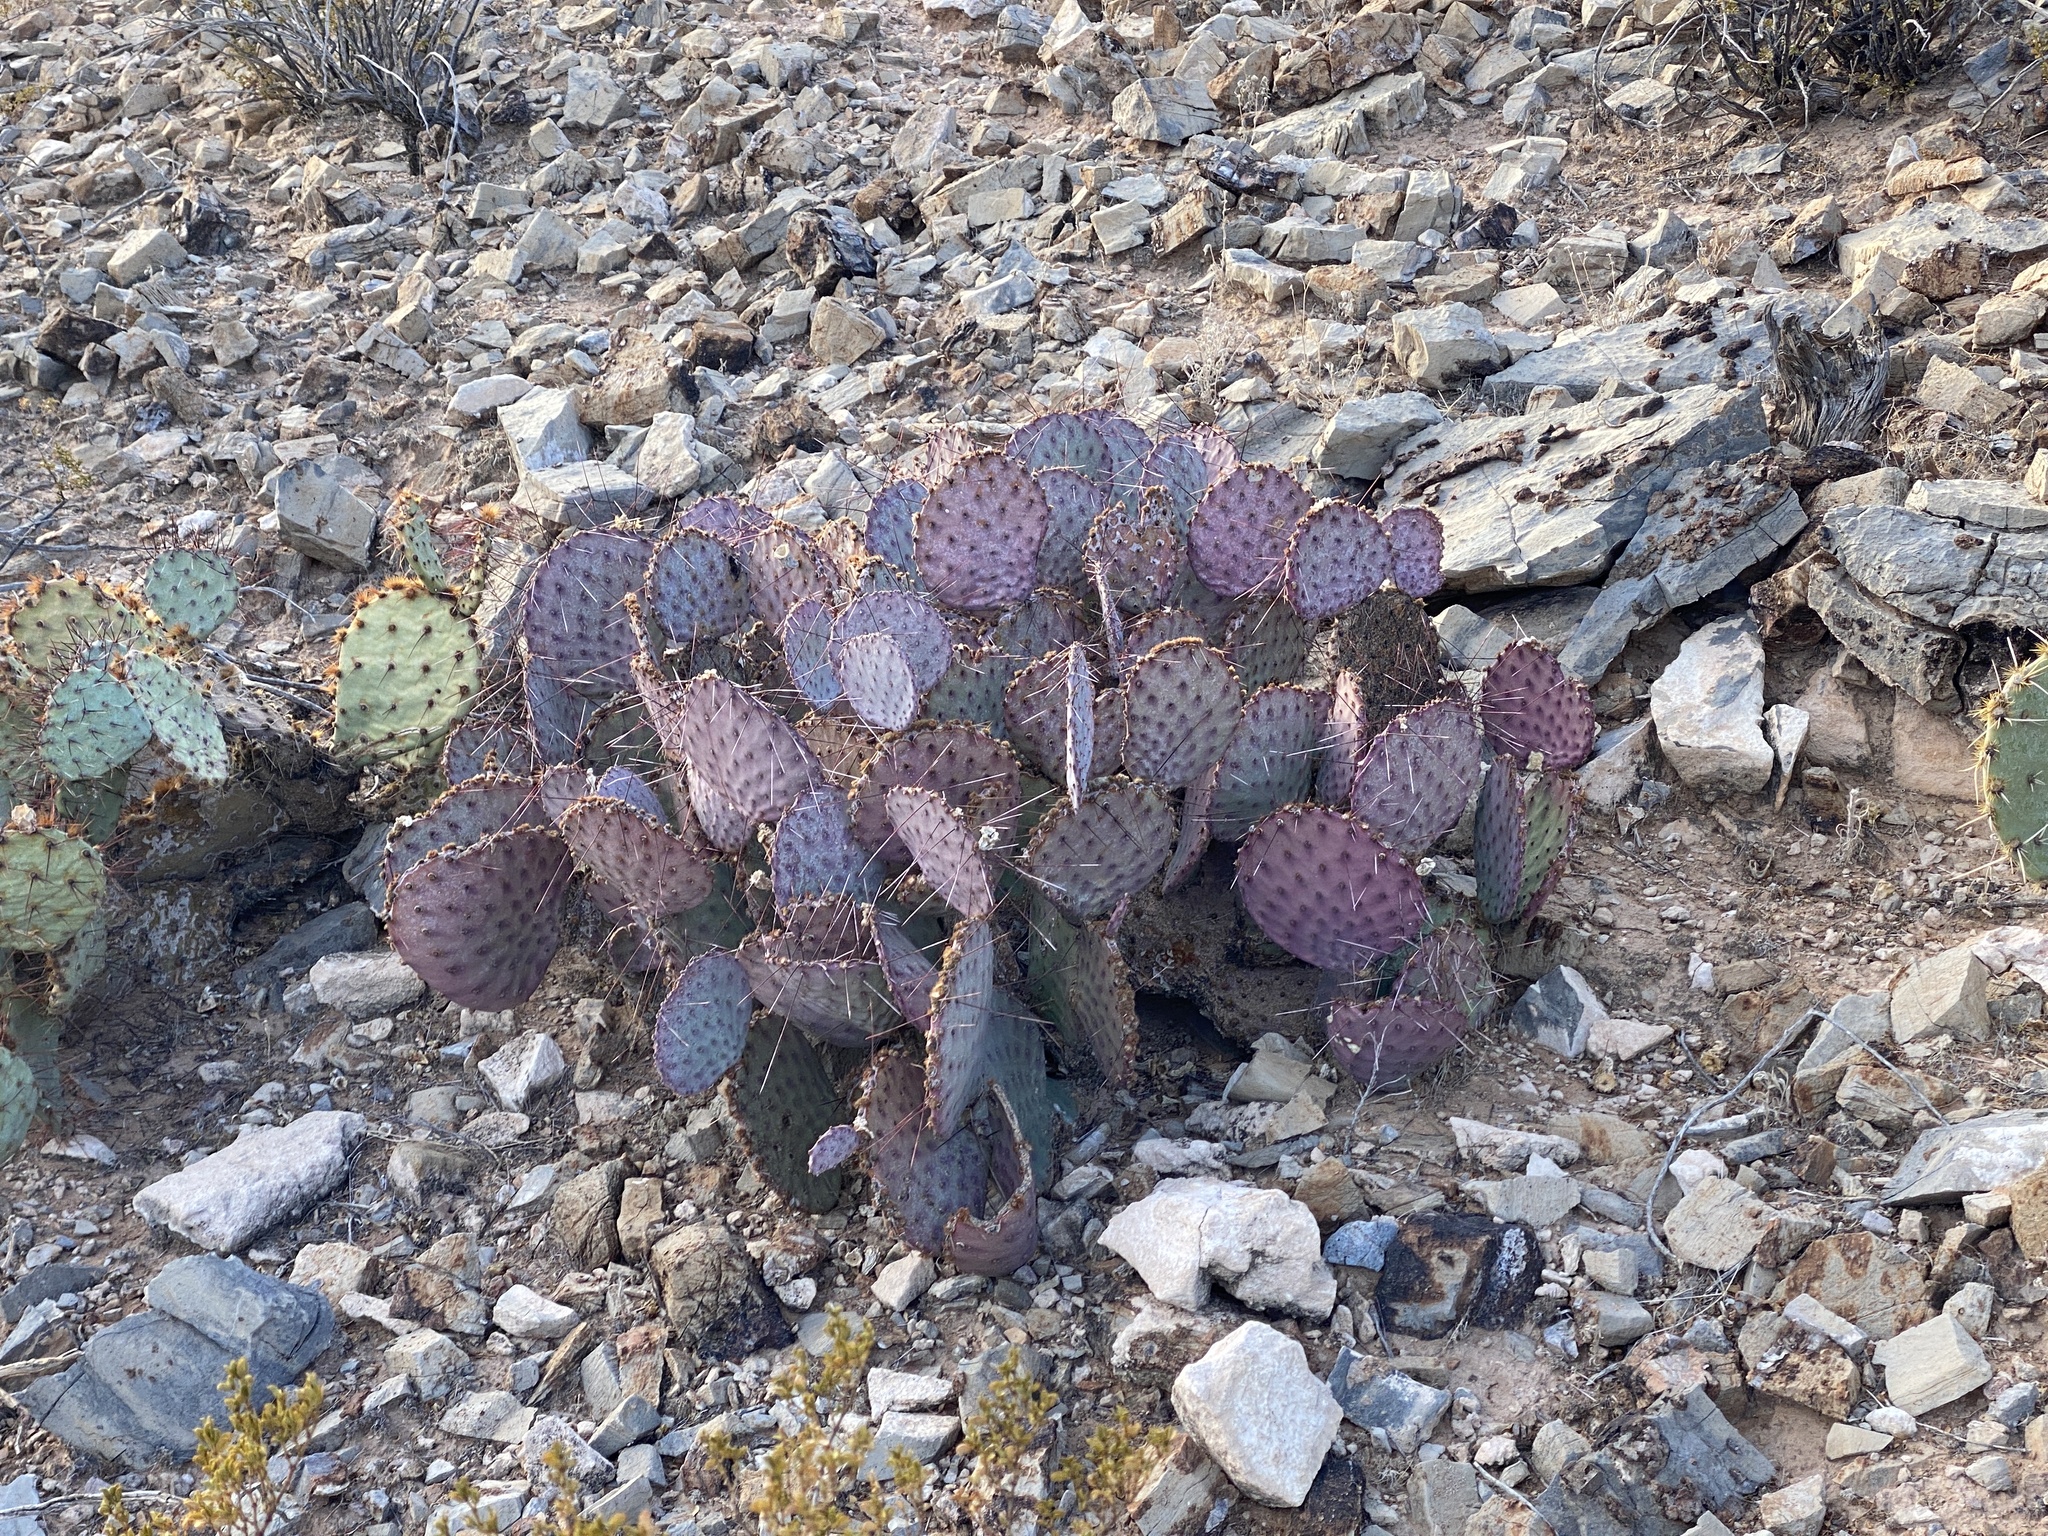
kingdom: Plantae
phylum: Tracheophyta
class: Magnoliopsida
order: Caryophyllales
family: Cactaceae
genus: Opuntia
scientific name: Opuntia macrocentra
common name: Purple prickly-pear
